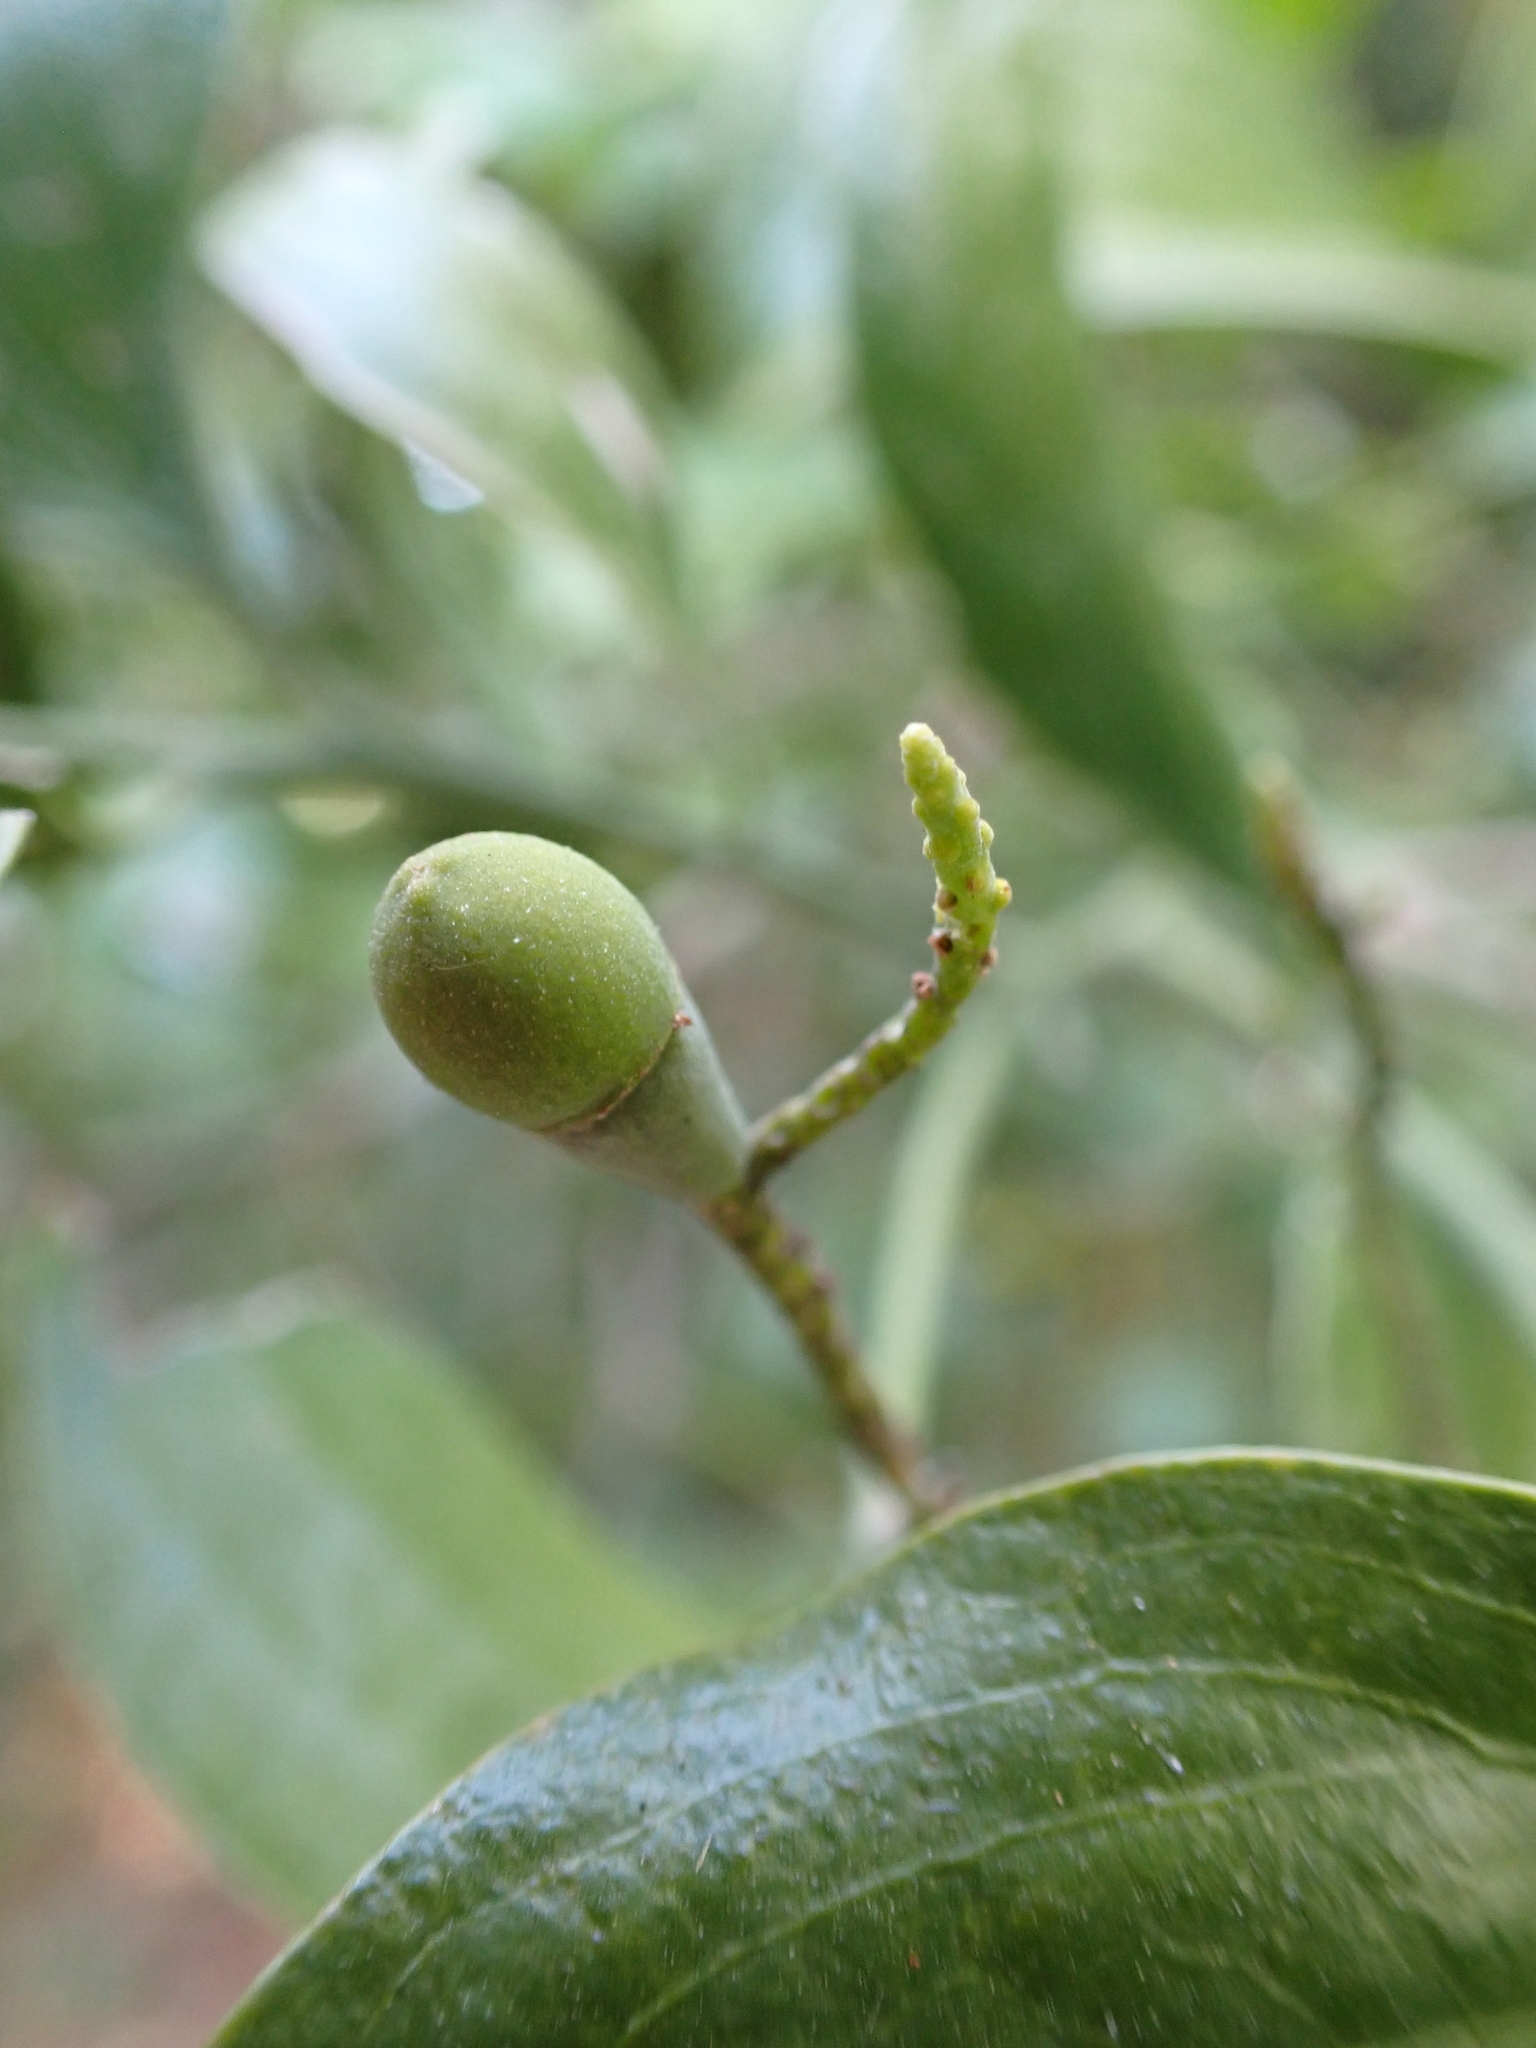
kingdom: Plantae
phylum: Tracheophyta
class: Magnoliopsida
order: Santalales
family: Santalaceae
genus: Exocarpos
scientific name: Exocarpos latifolius
